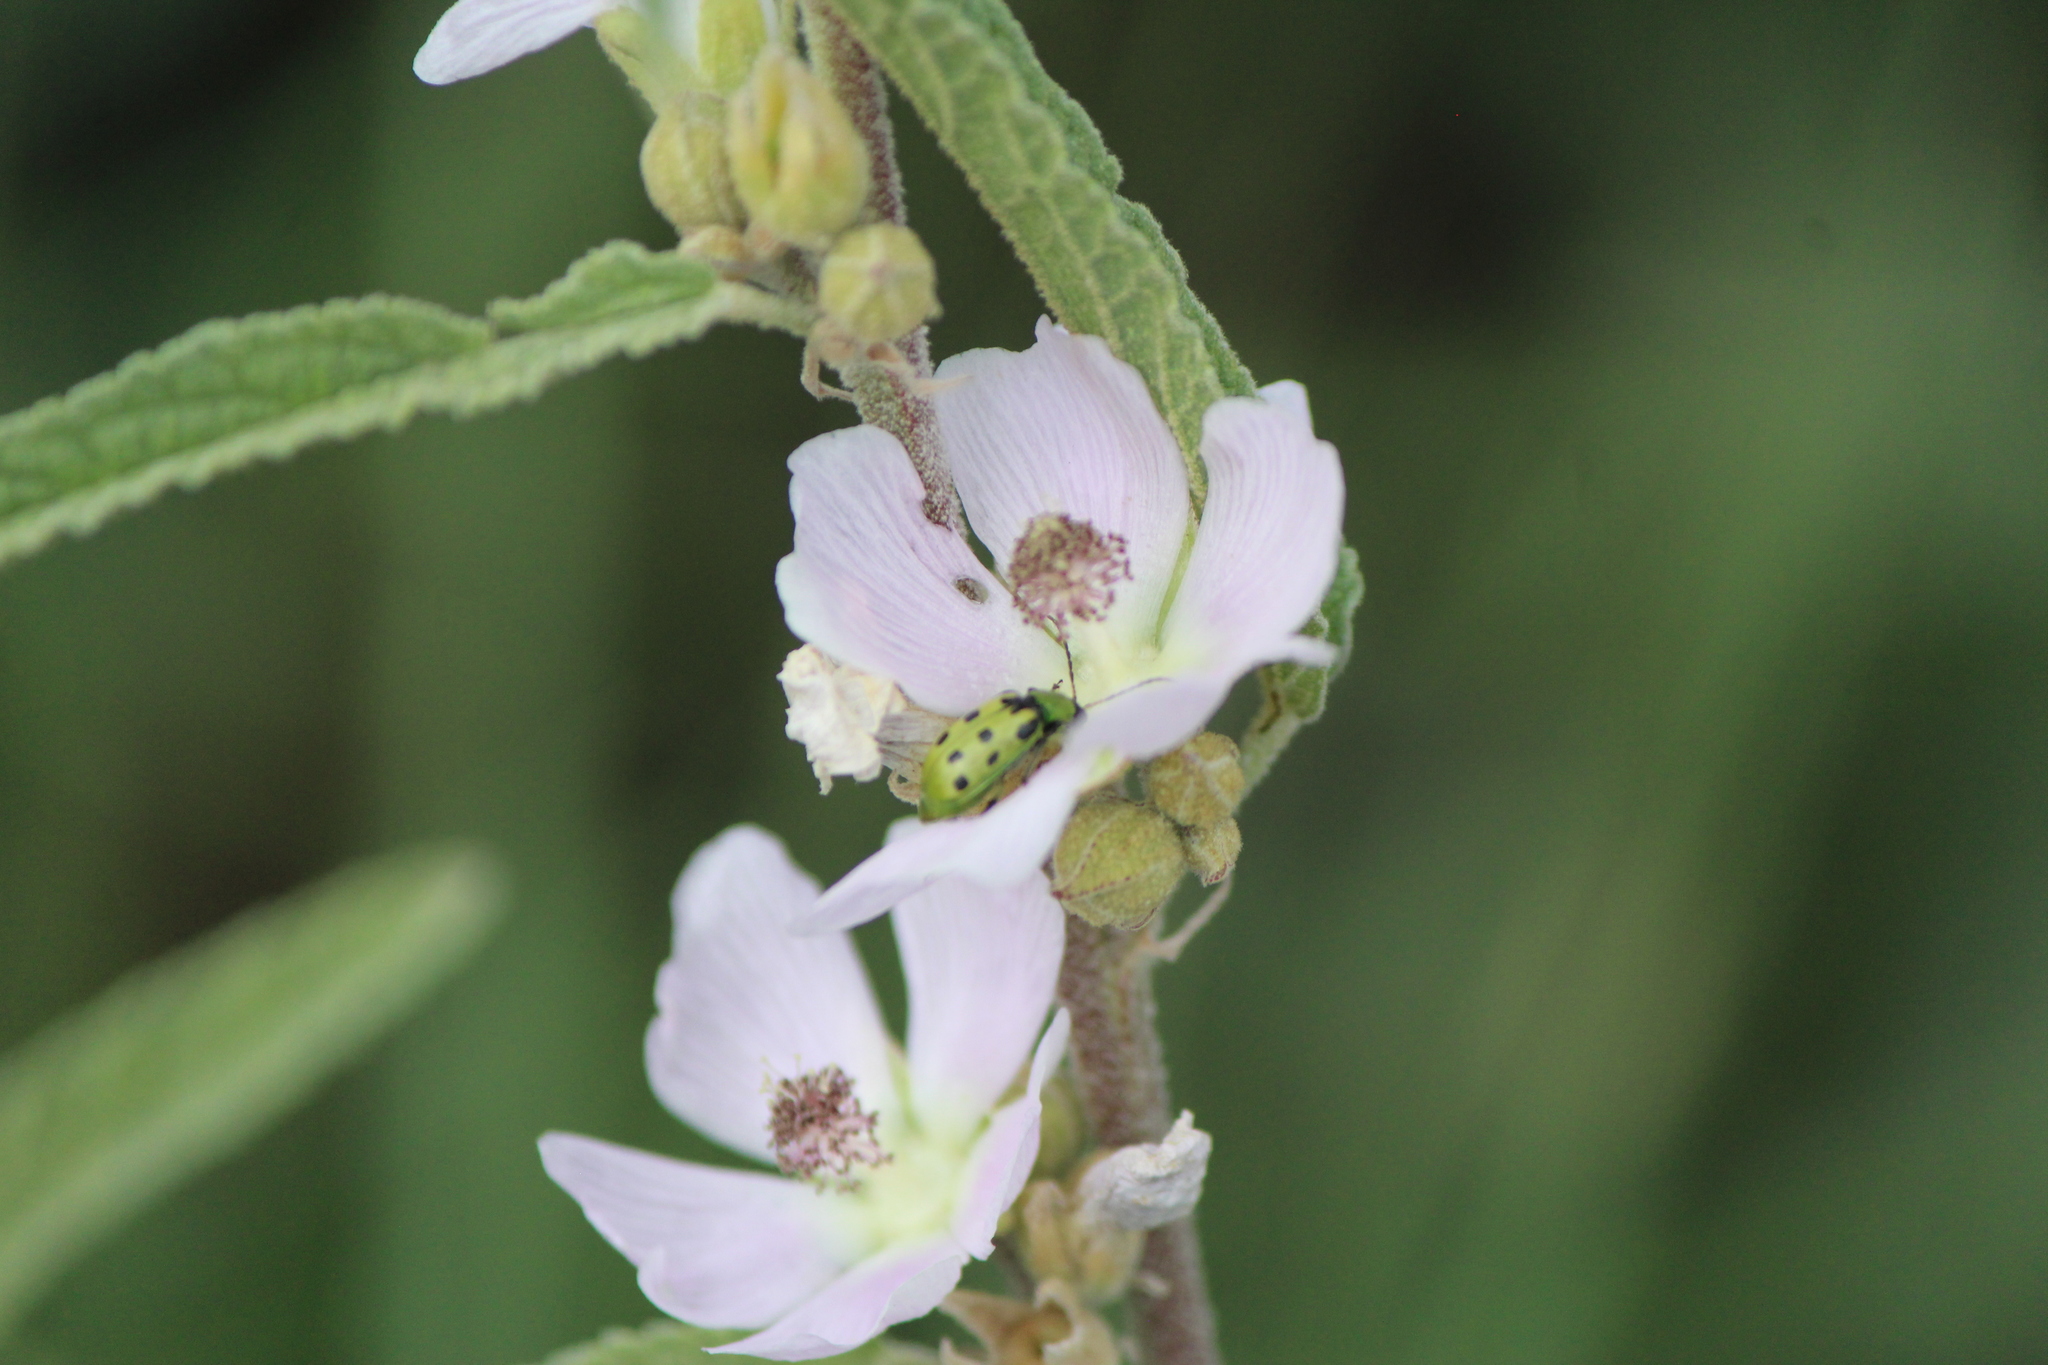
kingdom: Animalia
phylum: Arthropoda
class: Insecta
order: Coleoptera
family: Chrysomelidae
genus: Diabrotica
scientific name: Diabrotica undecimpunctata
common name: Spotted cucumber beetle
